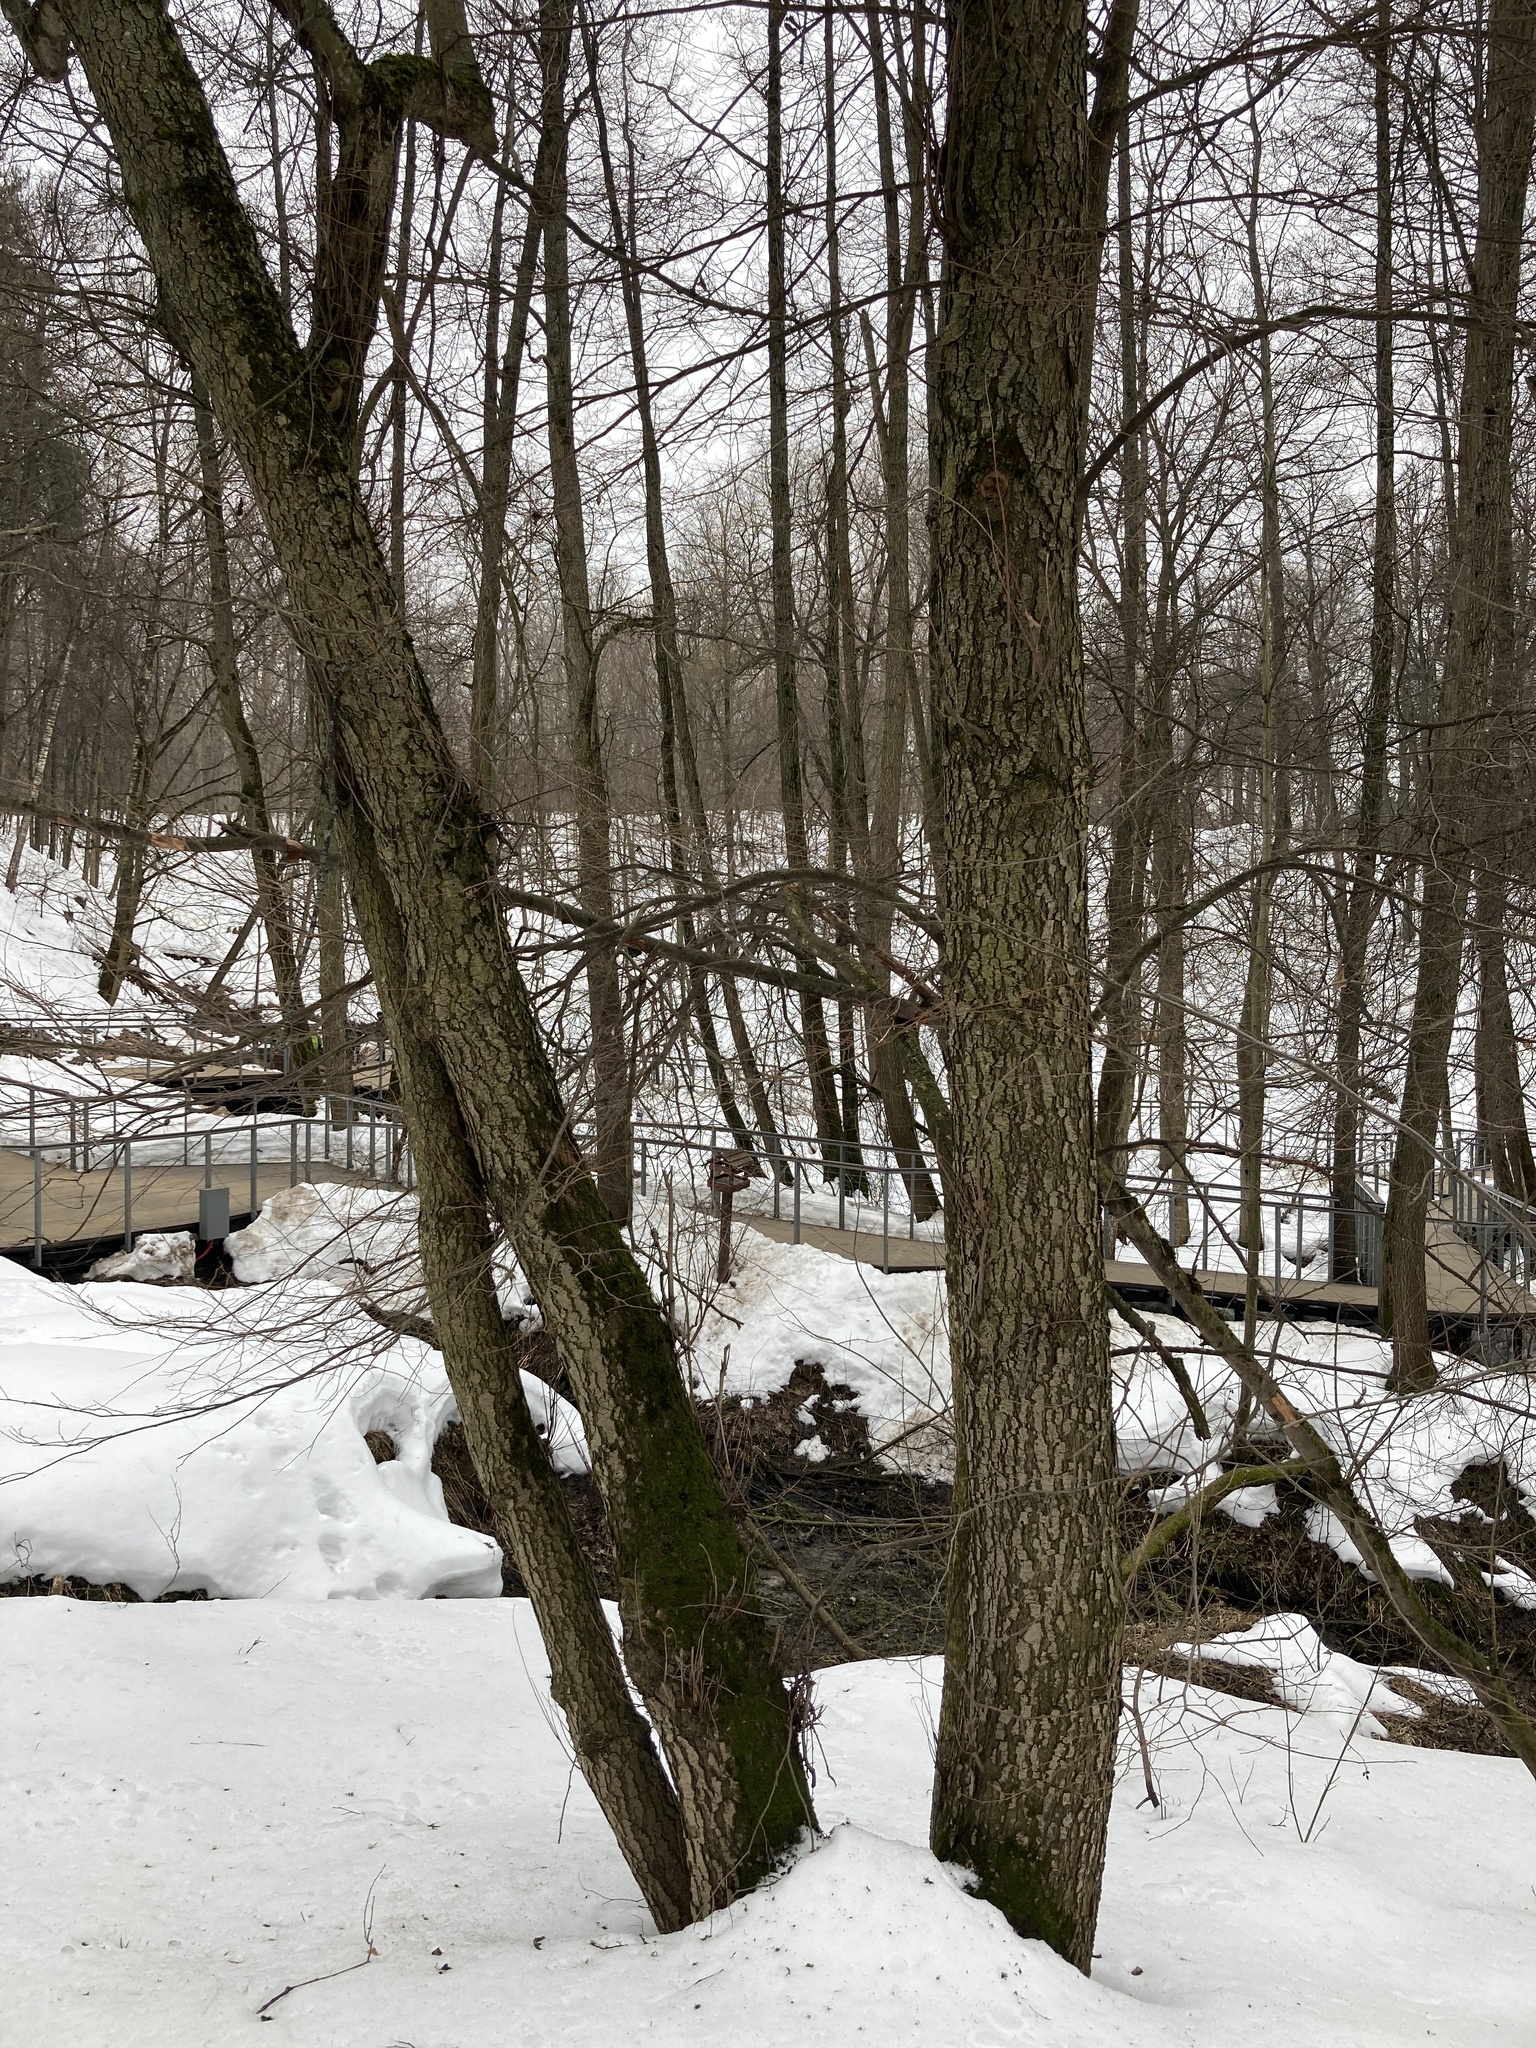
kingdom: Plantae
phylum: Tracheophyta
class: Magnoliopsida
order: Fagales
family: Betulaceae
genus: Alnus
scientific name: Alnus glutinosa
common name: Black alder
